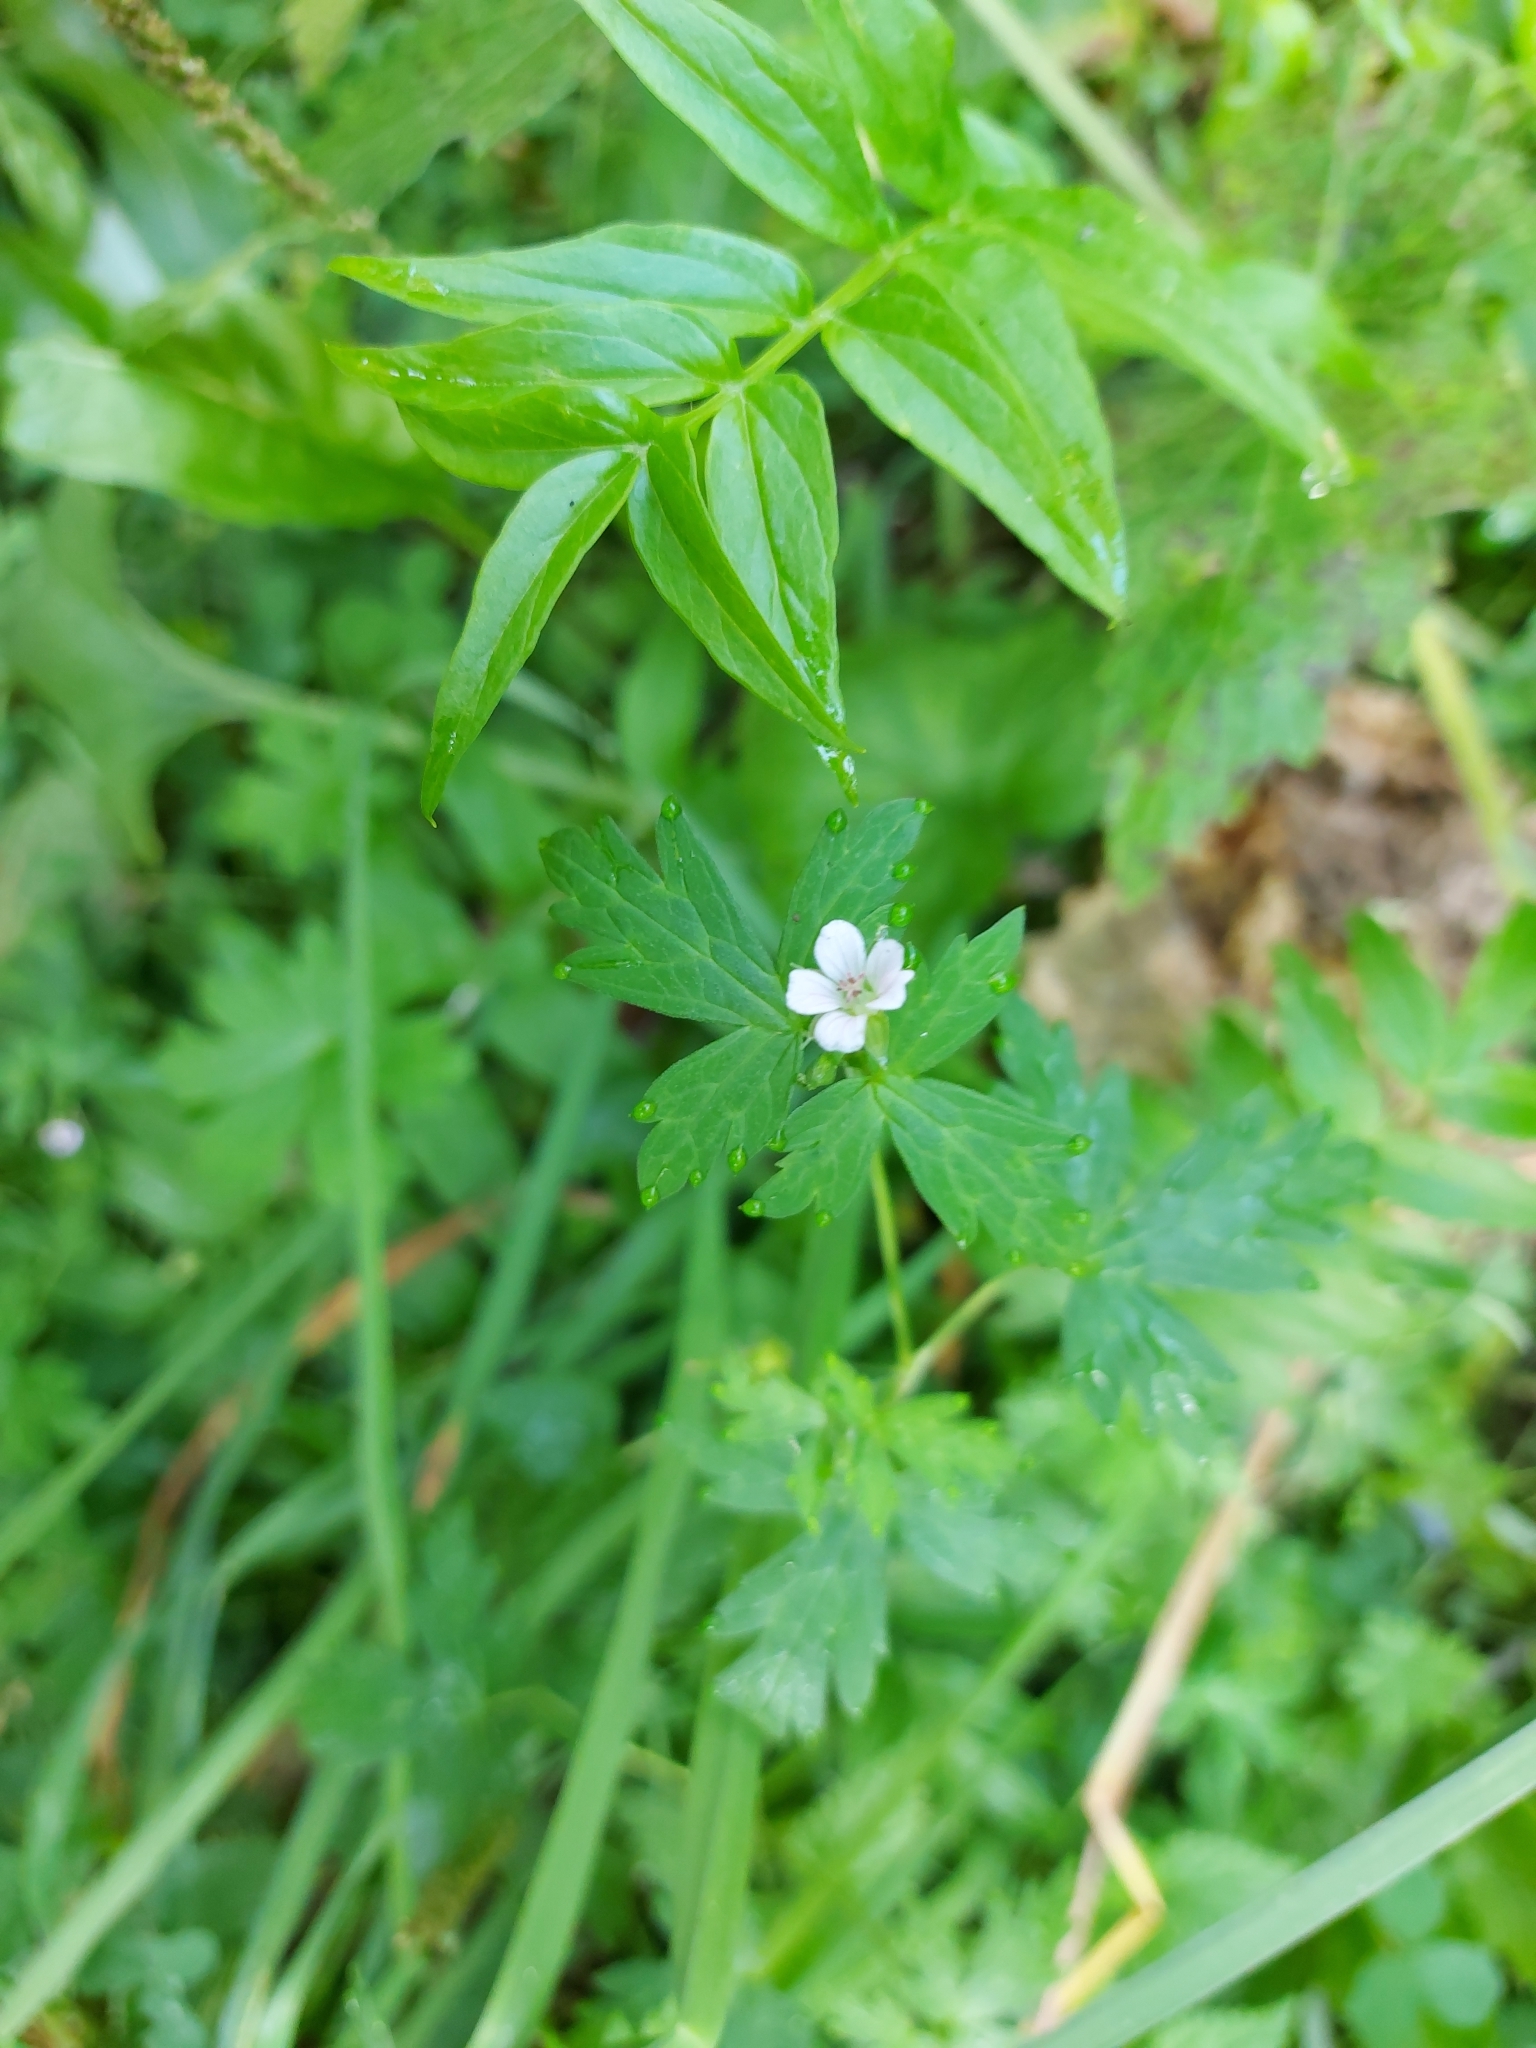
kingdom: Plantae
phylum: Tracheophyta
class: Magnoliopsida
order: Geraniales
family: Geraniaceae
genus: Geranium
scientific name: Geranium sibiricum
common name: Siberian crane's-bill
